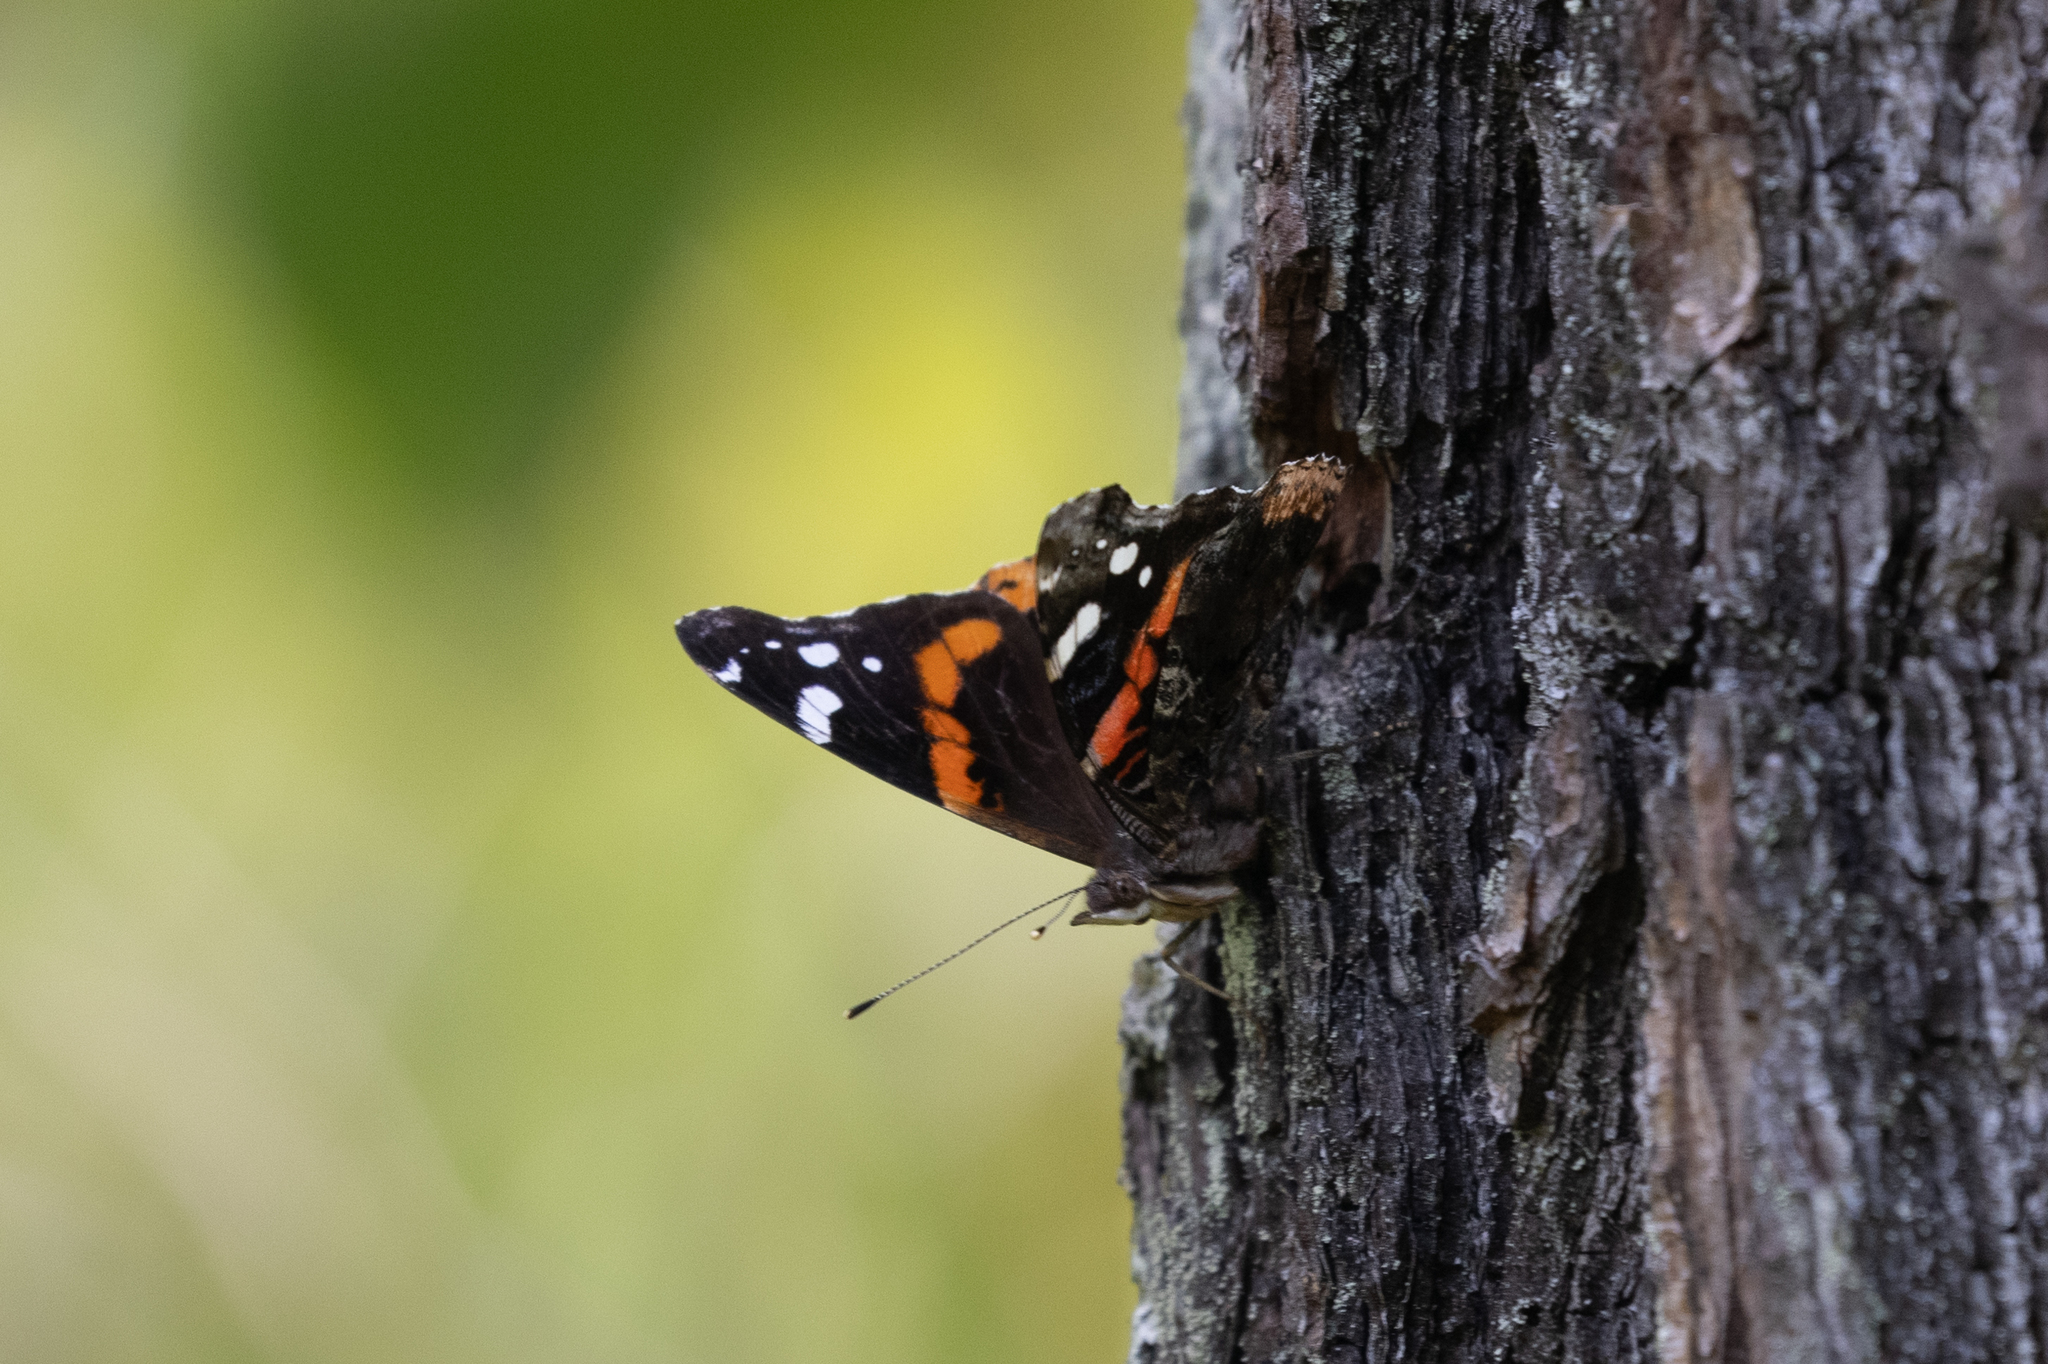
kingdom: Animalia
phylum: Arthropoda
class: Insecta
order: Lepidoptera
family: Nymphalidae
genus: Vanessa
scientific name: Vanessa atalanta
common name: Red admiral
